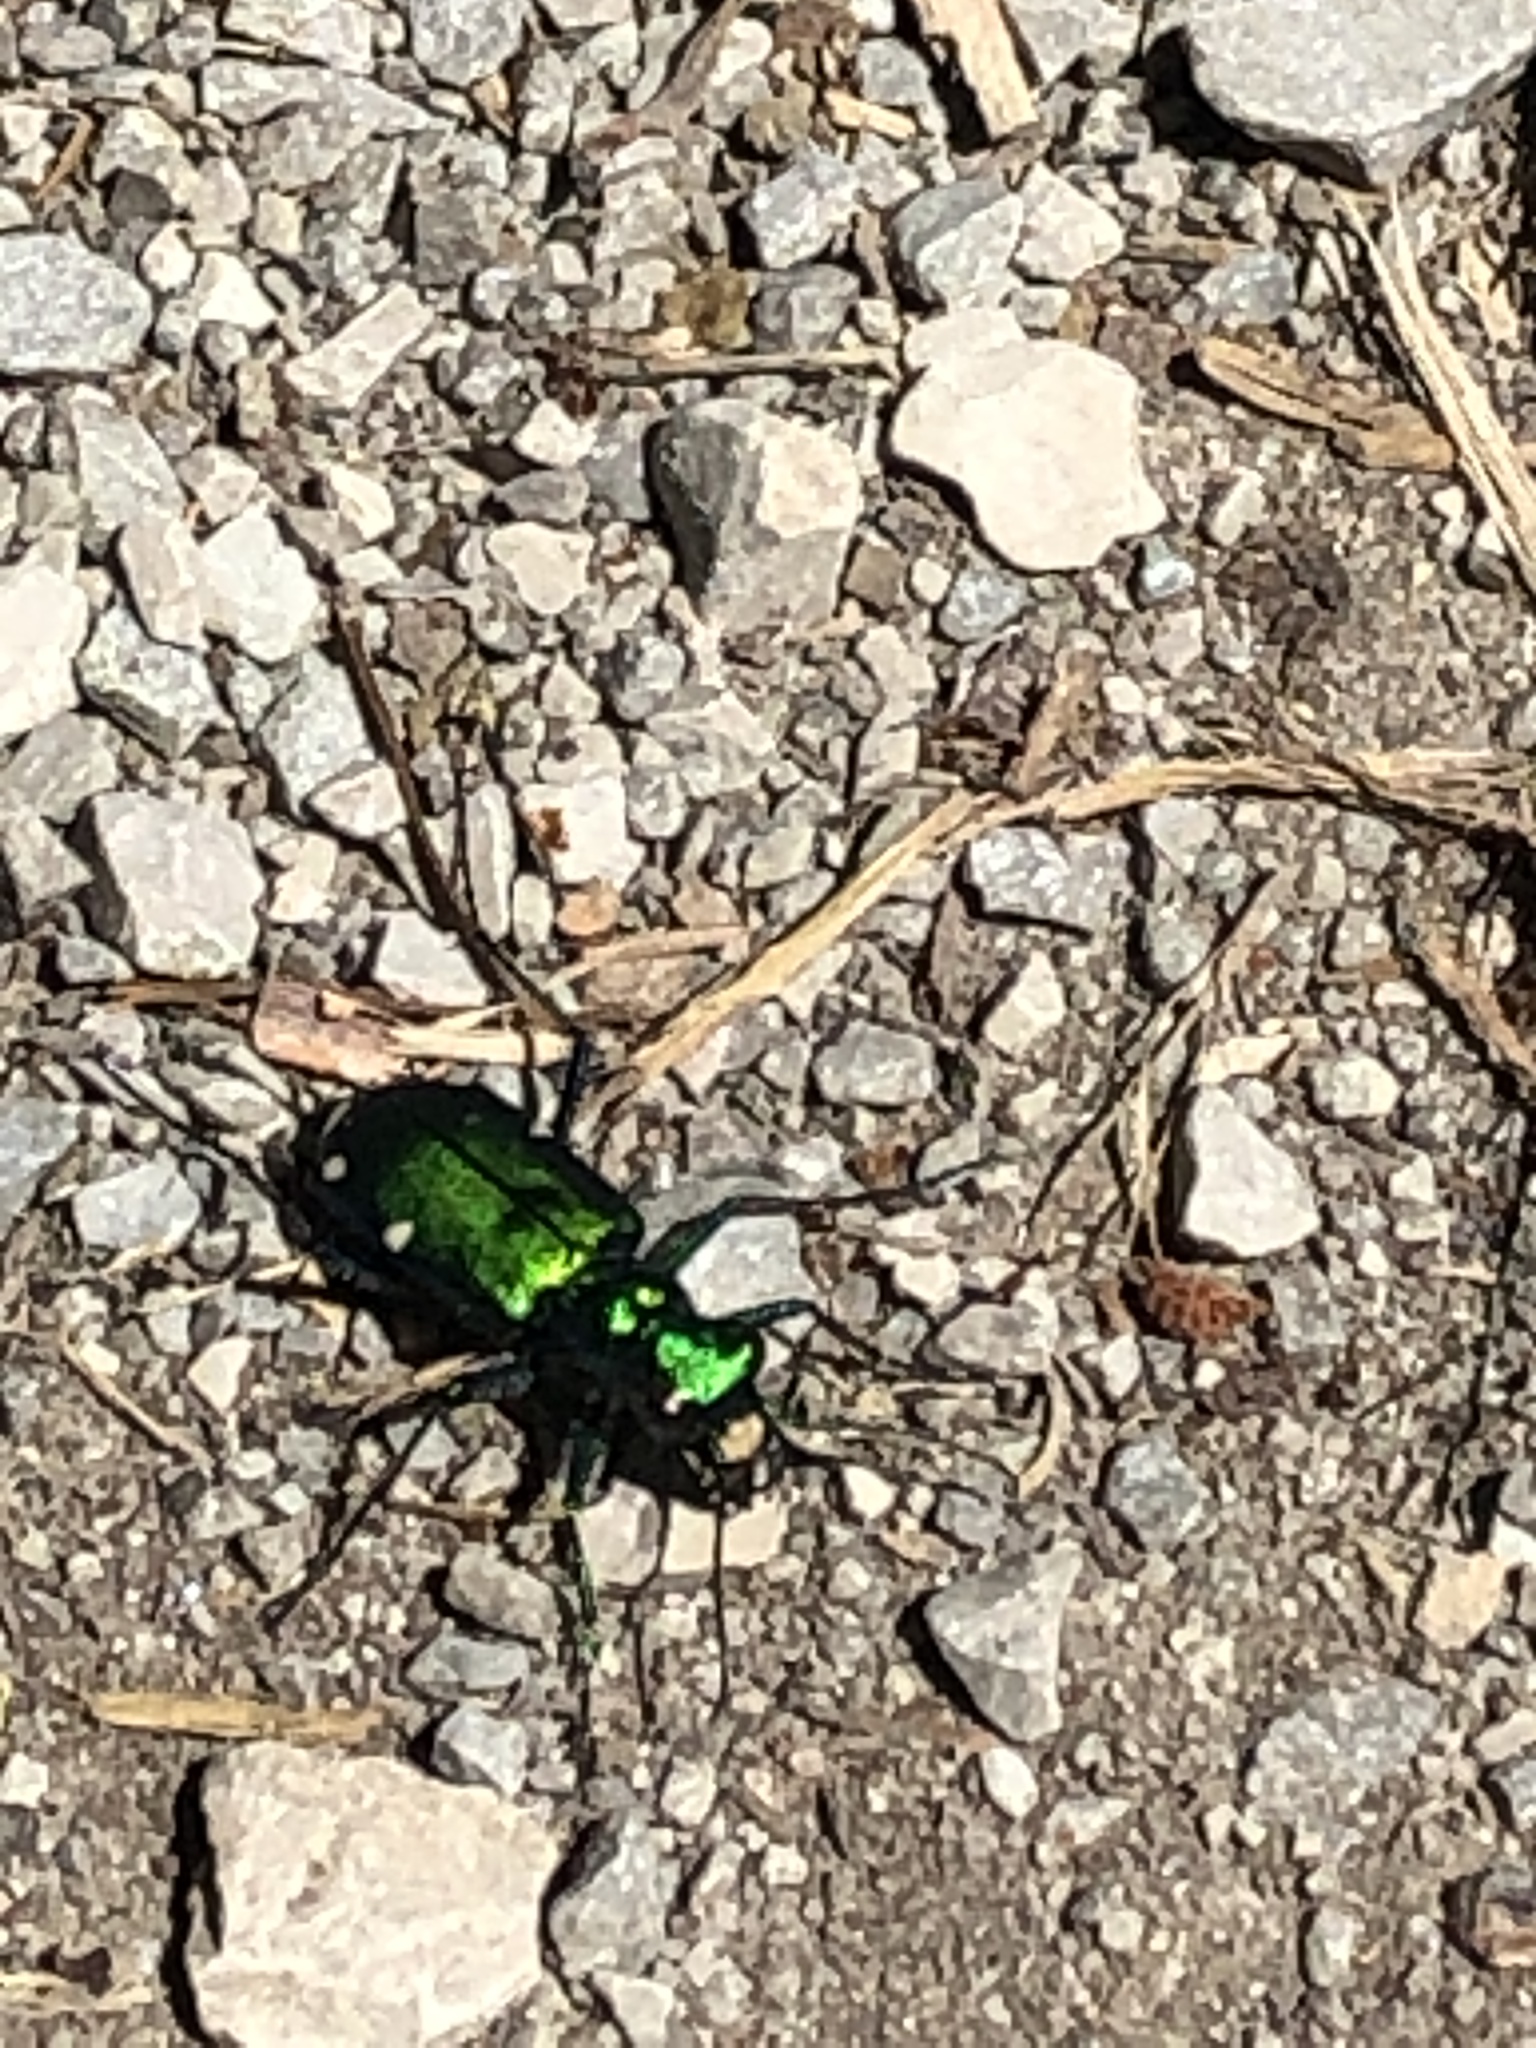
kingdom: Animalia
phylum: Arthropoda
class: Insecta
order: Coleoptera
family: Carabidae
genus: Cicindela
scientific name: Cicindela sexguttata
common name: Six-spotted tiger beetle
